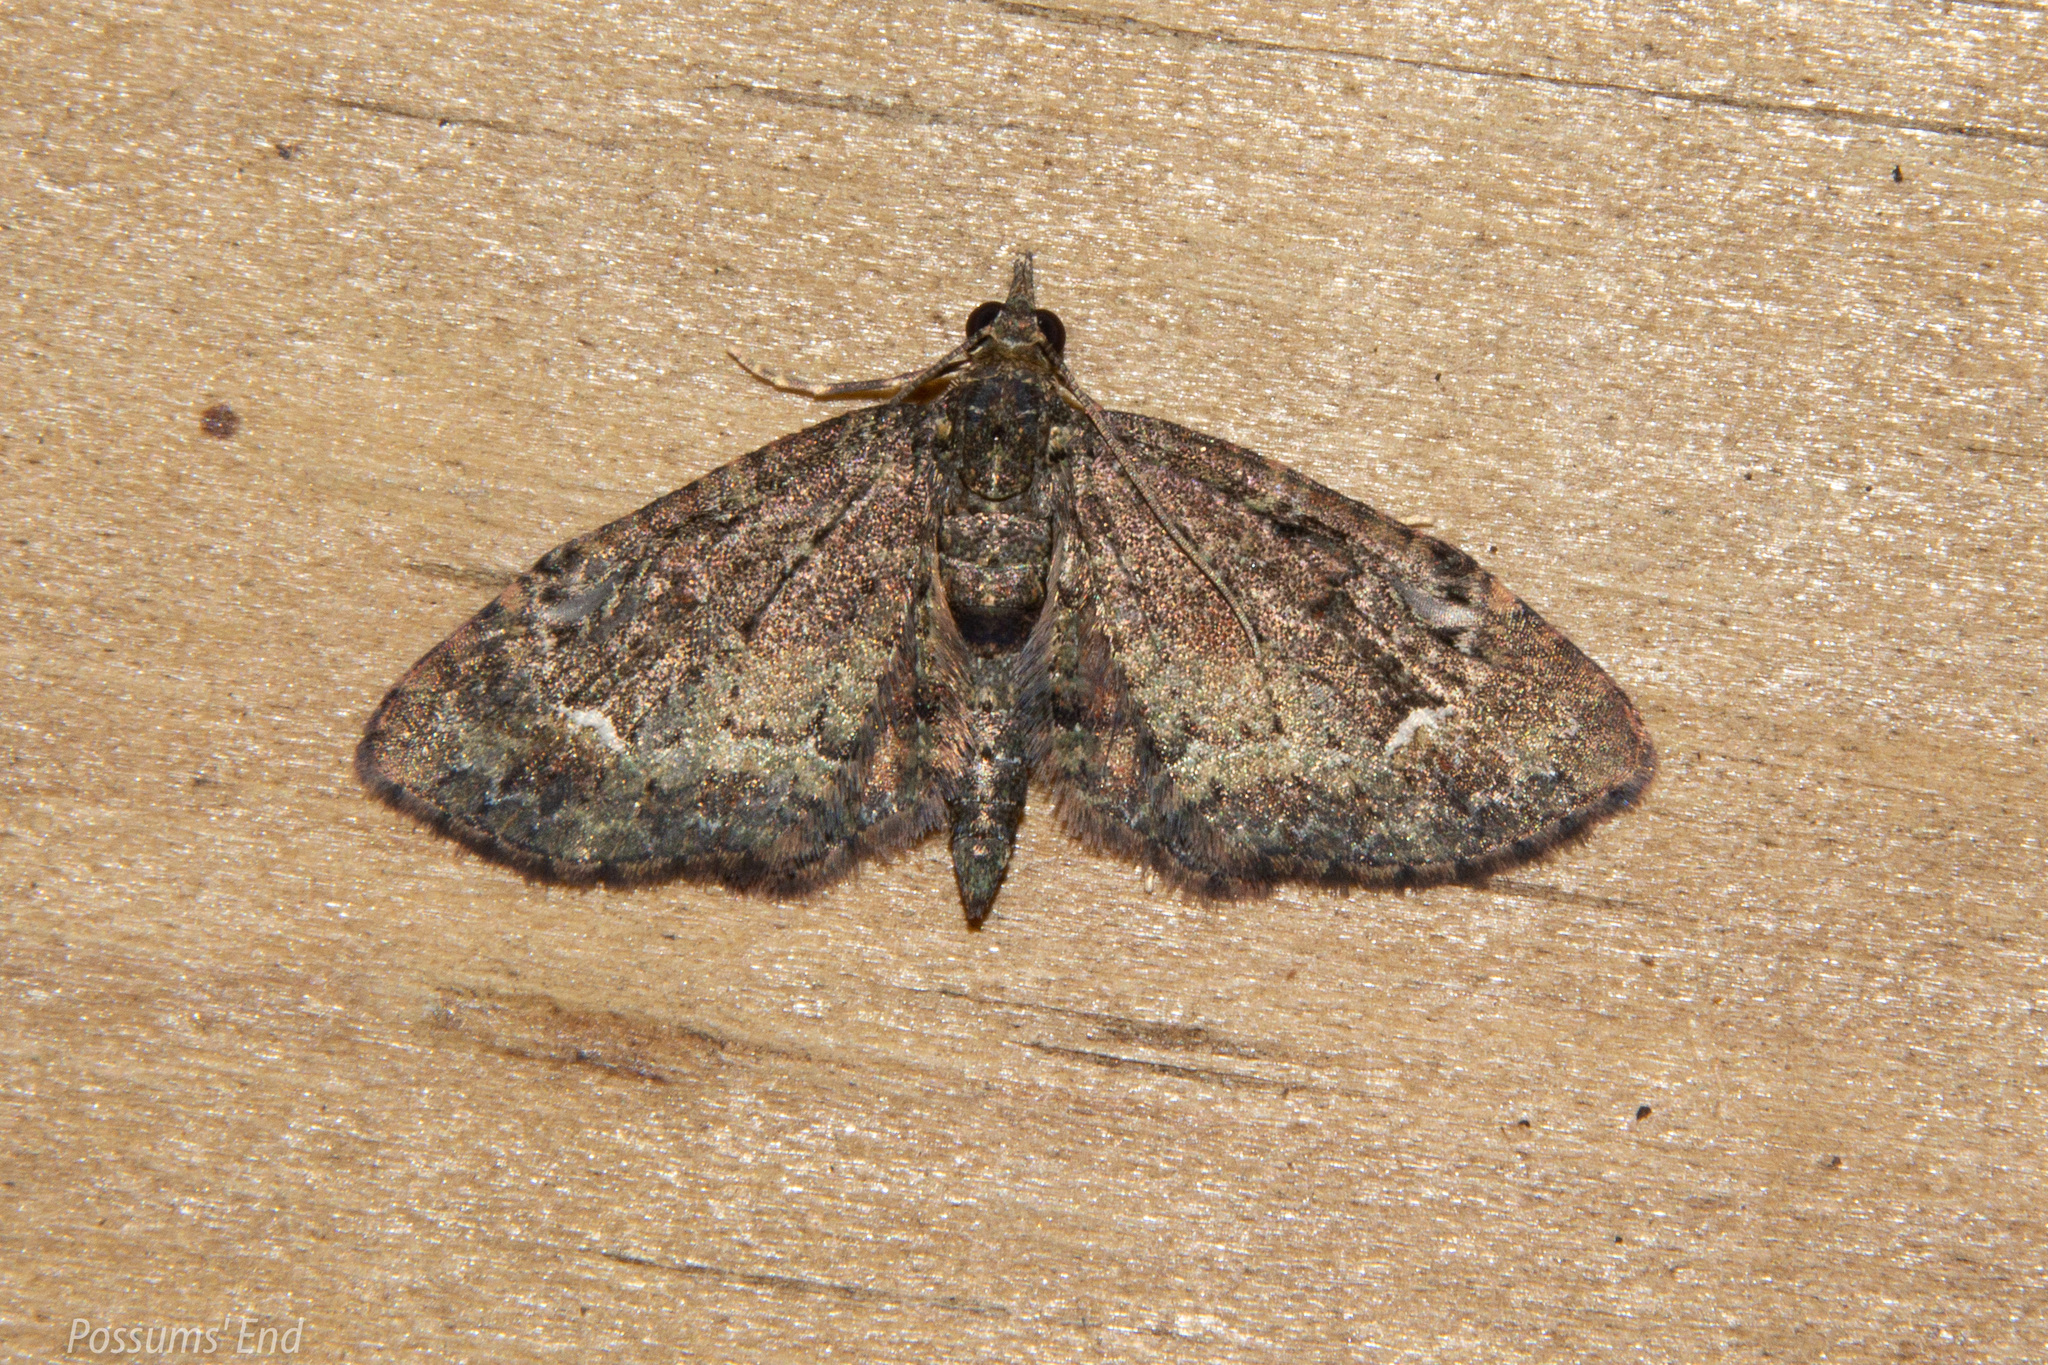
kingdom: Animalia
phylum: Arthropoda
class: Insecta
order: Lepidoptera
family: Geometridae
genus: Pasiphilodes
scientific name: Pasiphilodes testulata
